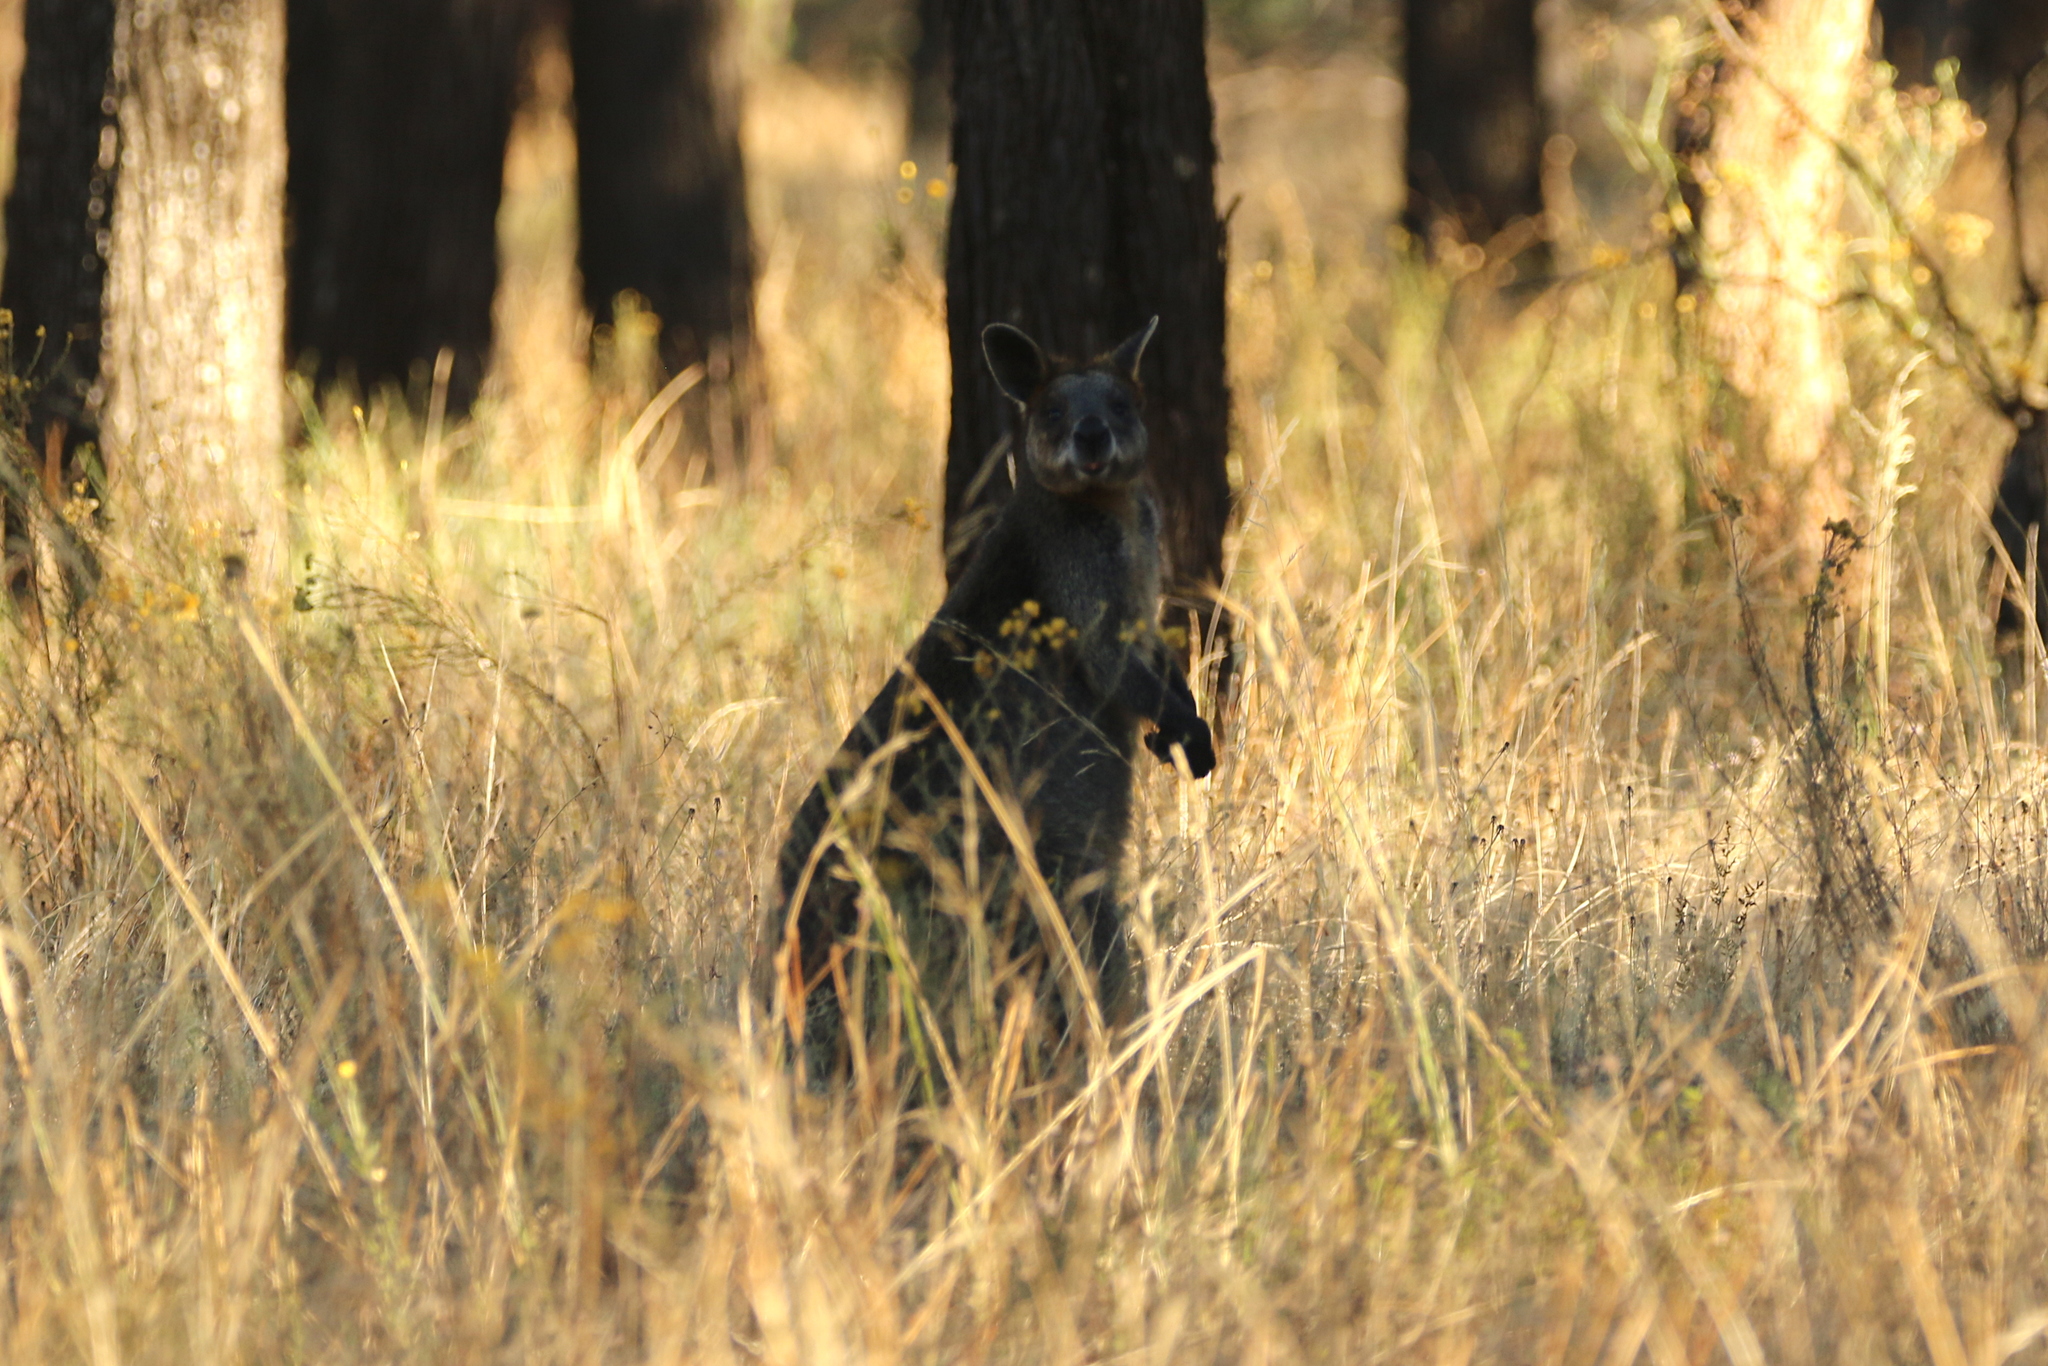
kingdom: Animalia
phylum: Chordata
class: Mammalia
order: Diprotodontia
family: Macropodidae
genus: Wallabia
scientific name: Wallabia bicolor
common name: Swamp wallaby
